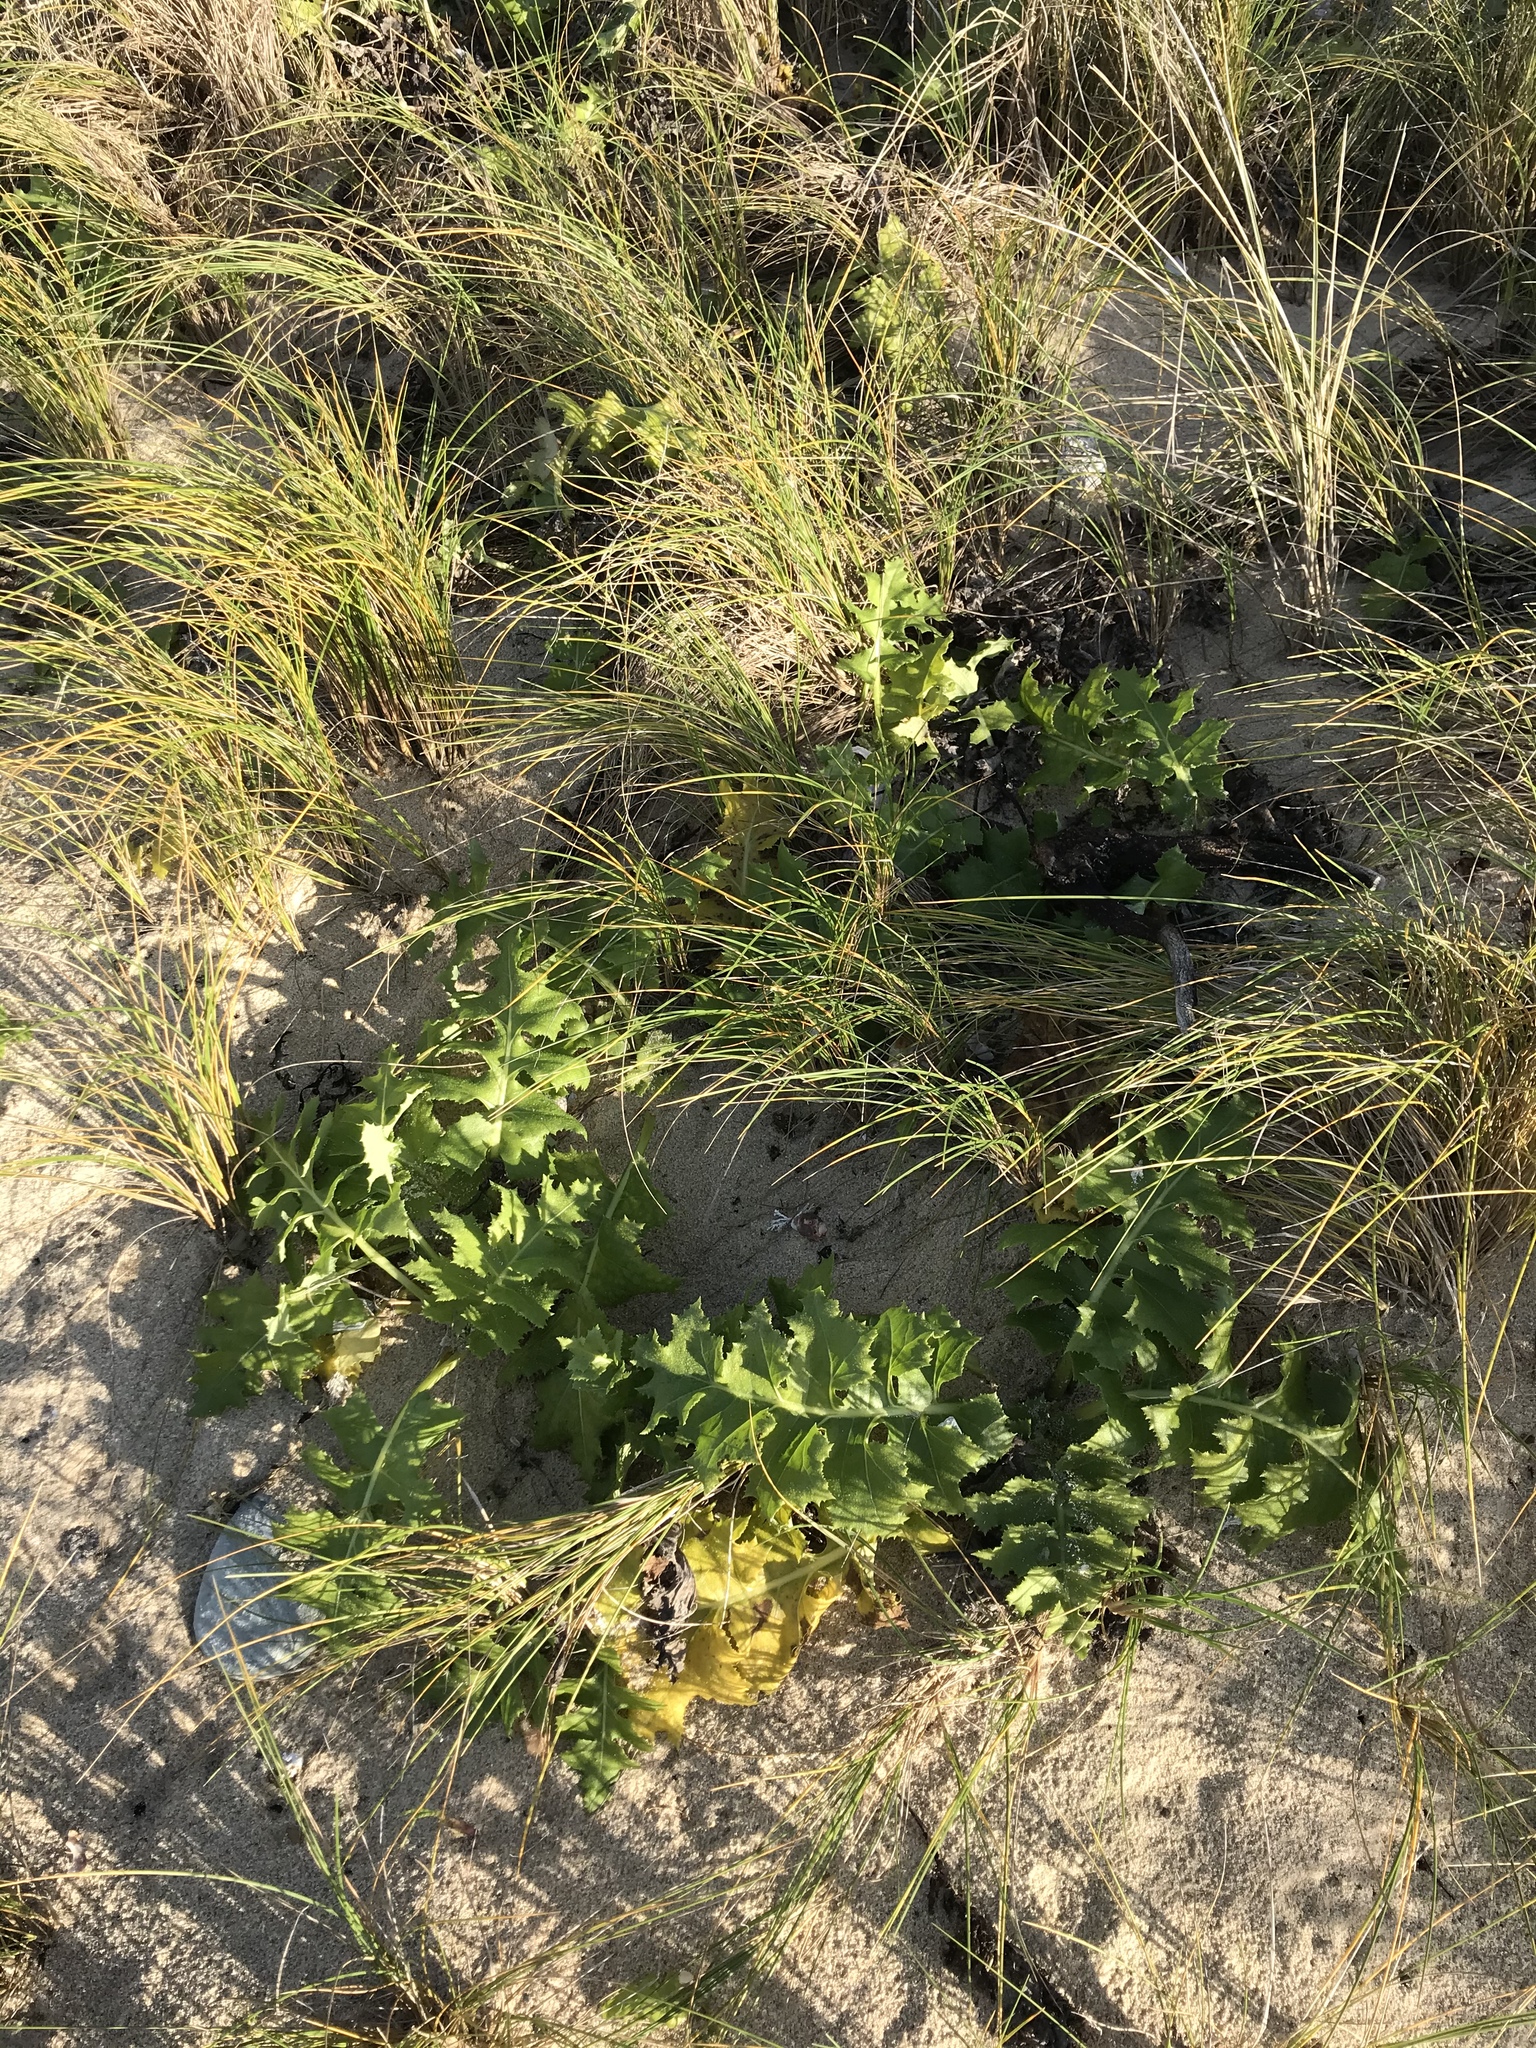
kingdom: Plantae
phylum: Tracheophyta
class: Magnoliopsida
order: Asterales
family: Asteraceae
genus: Sonchus
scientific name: Sonchus grandifolius
